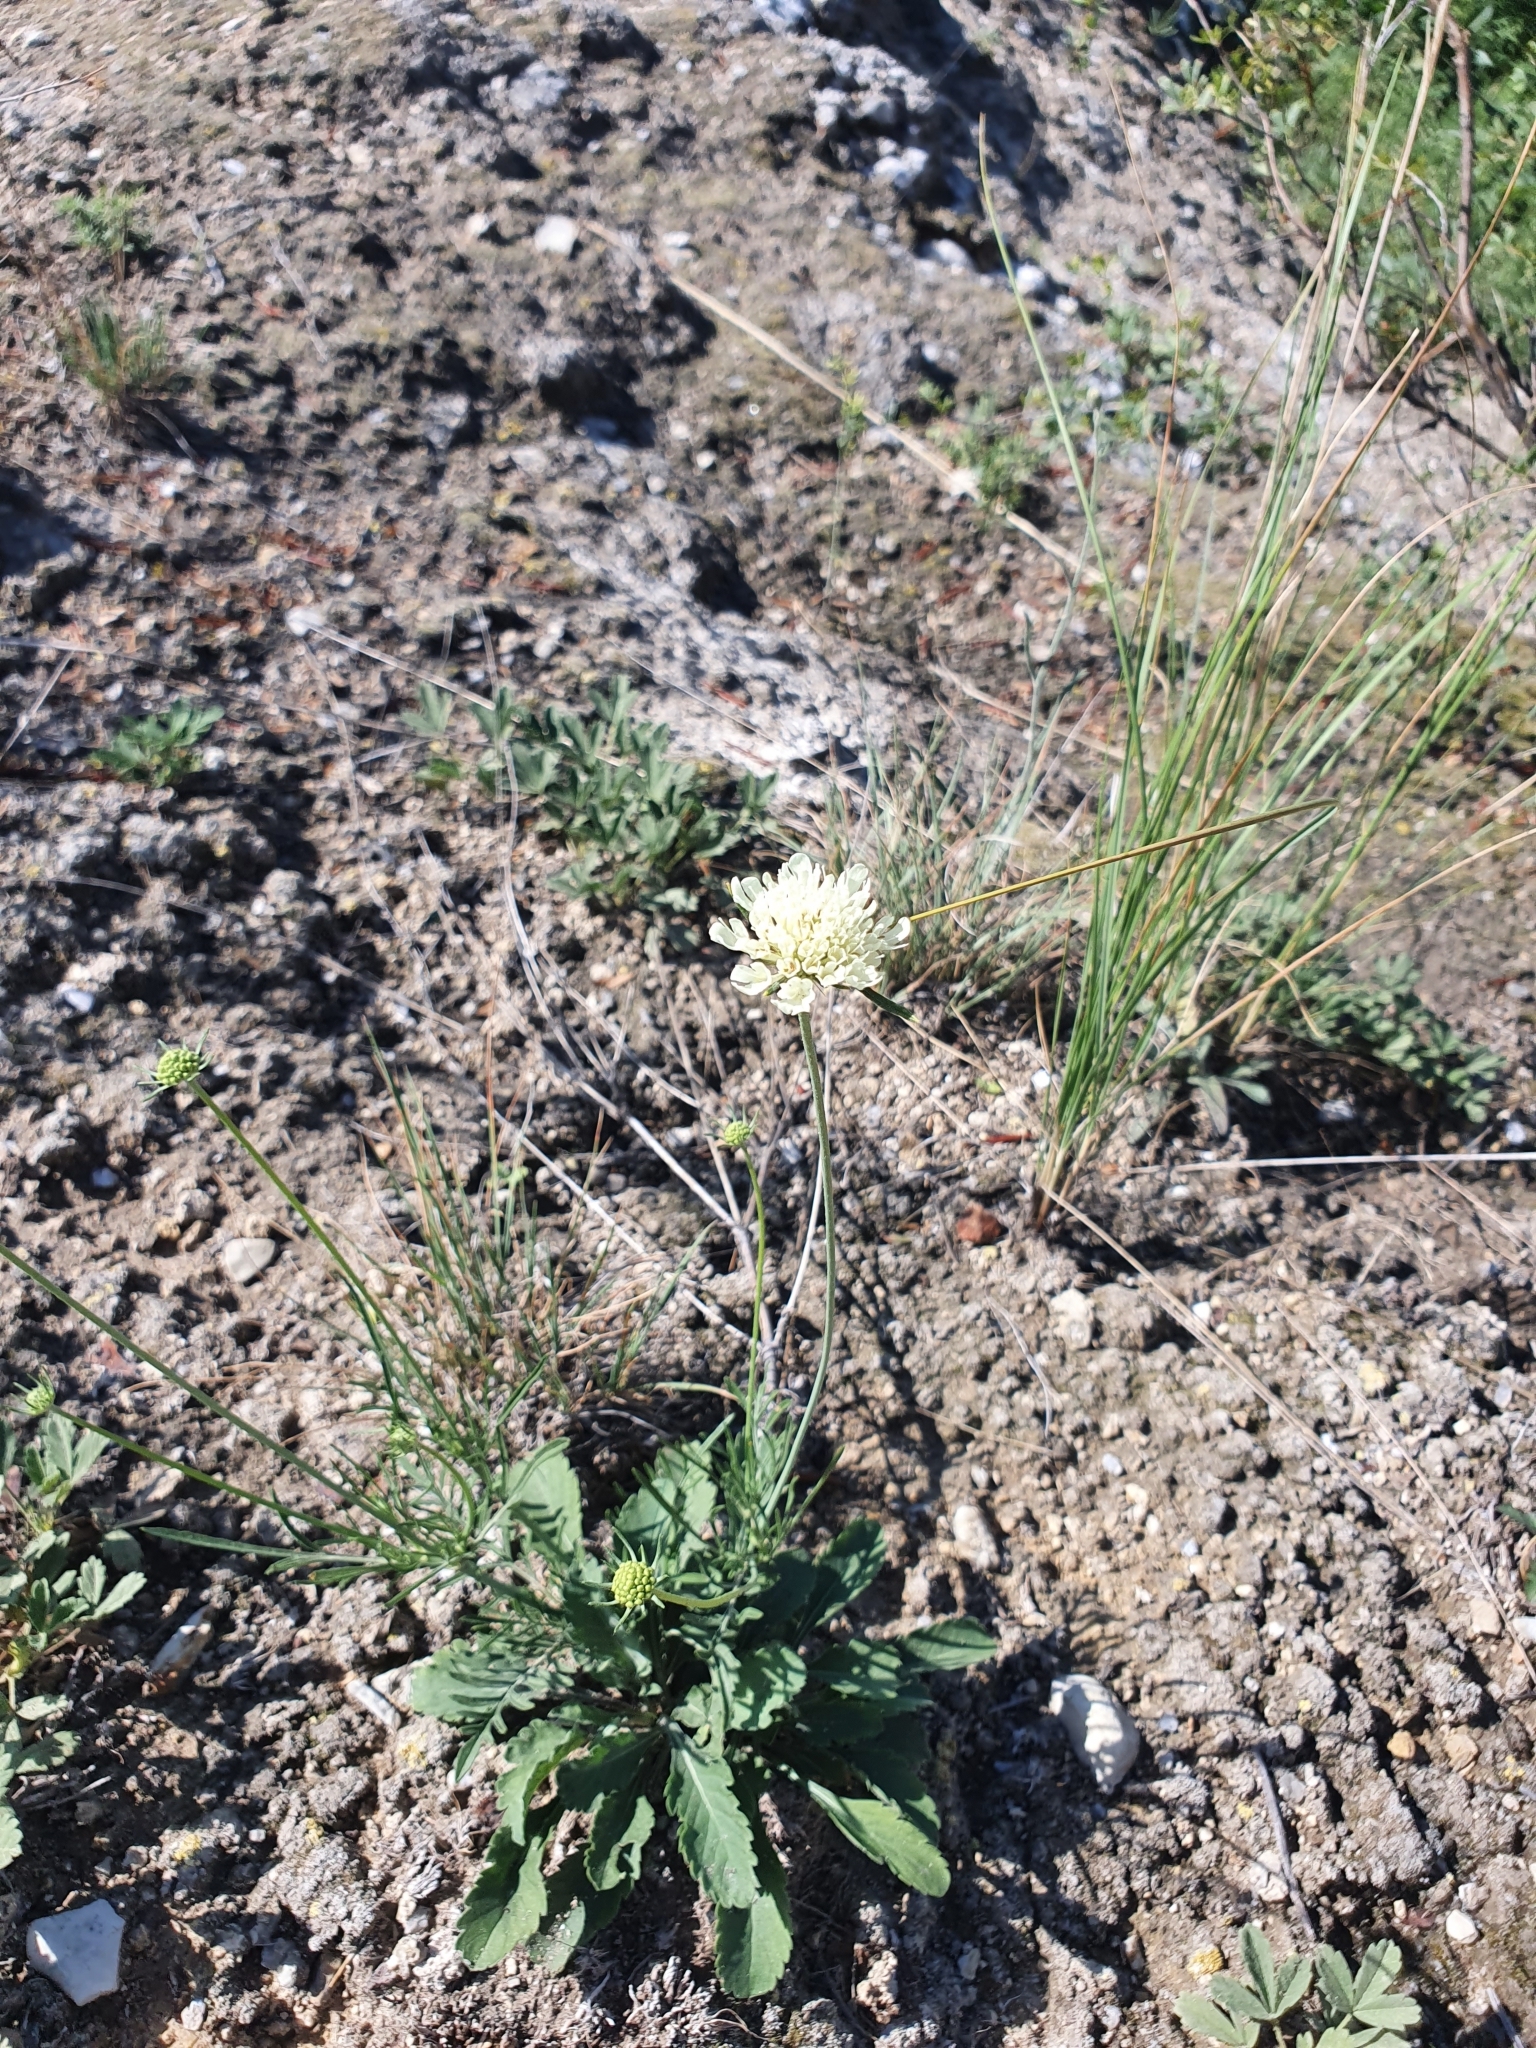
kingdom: Plantae
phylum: Tracheophyta
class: Magnoliopsida
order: Dipsacales
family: Caprifoliaceae
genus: Scabiosa
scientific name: Scabiosa ochroleuca
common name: Cream pincushions
